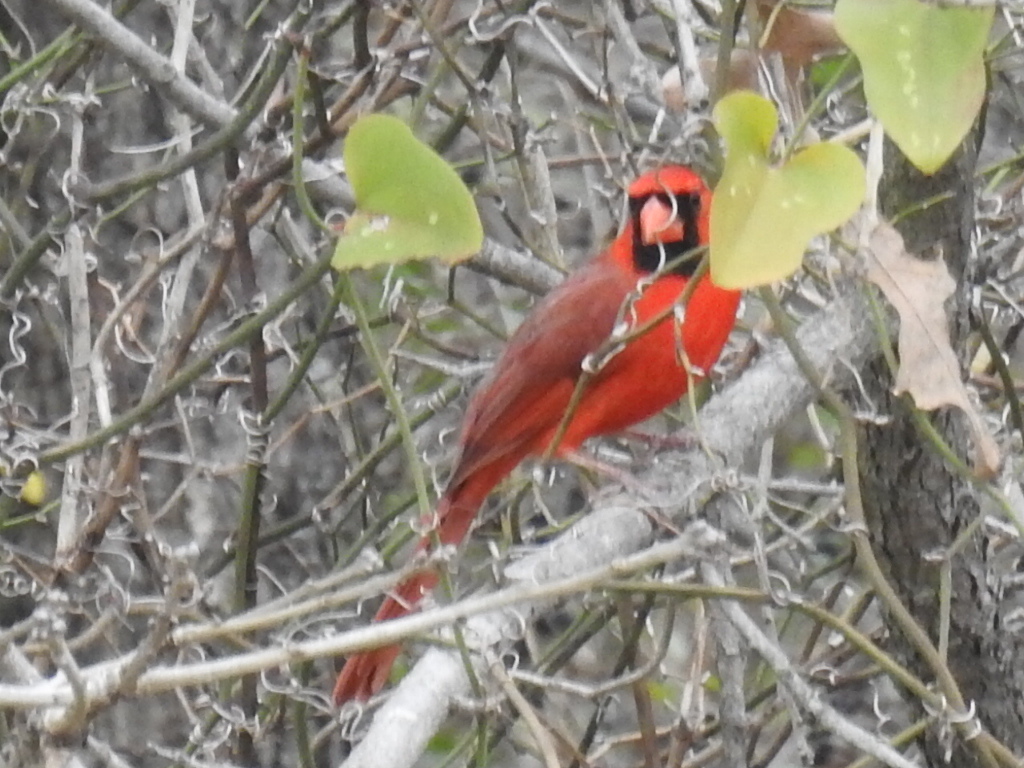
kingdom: Animalia
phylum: Chordata
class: Aves
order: Passeriformes
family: Cardinalidae
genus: Cardinalis
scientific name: Cardinalis cardinalis
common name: Northern cardinal
